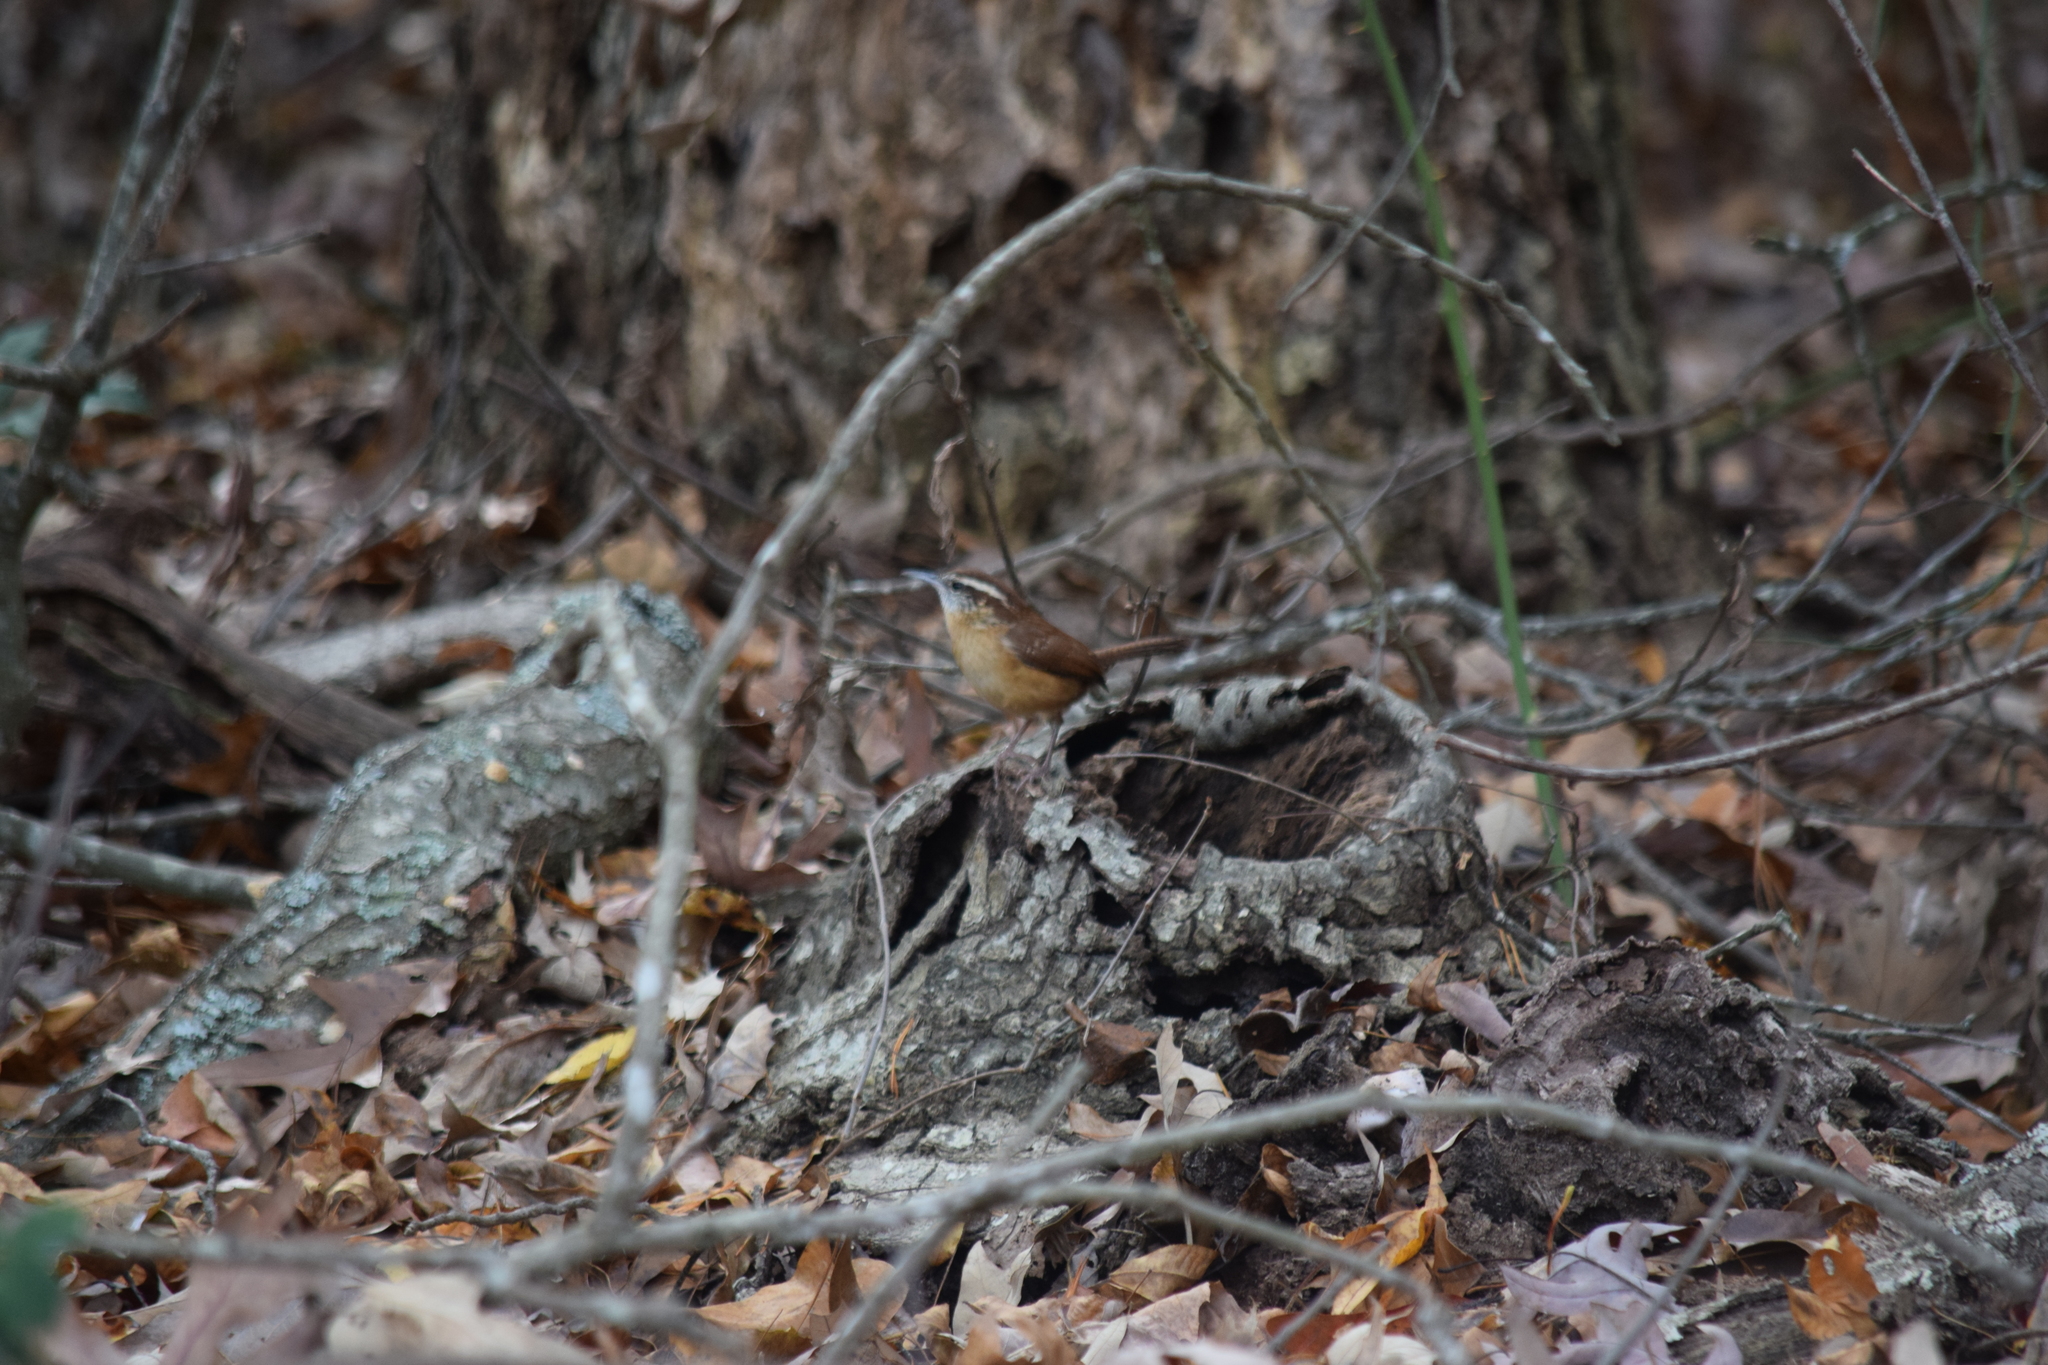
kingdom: Animalia
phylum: Chordata
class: Aves
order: Passeriformes
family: Troglodytidae
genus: Thryothorus
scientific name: Thryothorus ludovicianus
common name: Carolina wren
